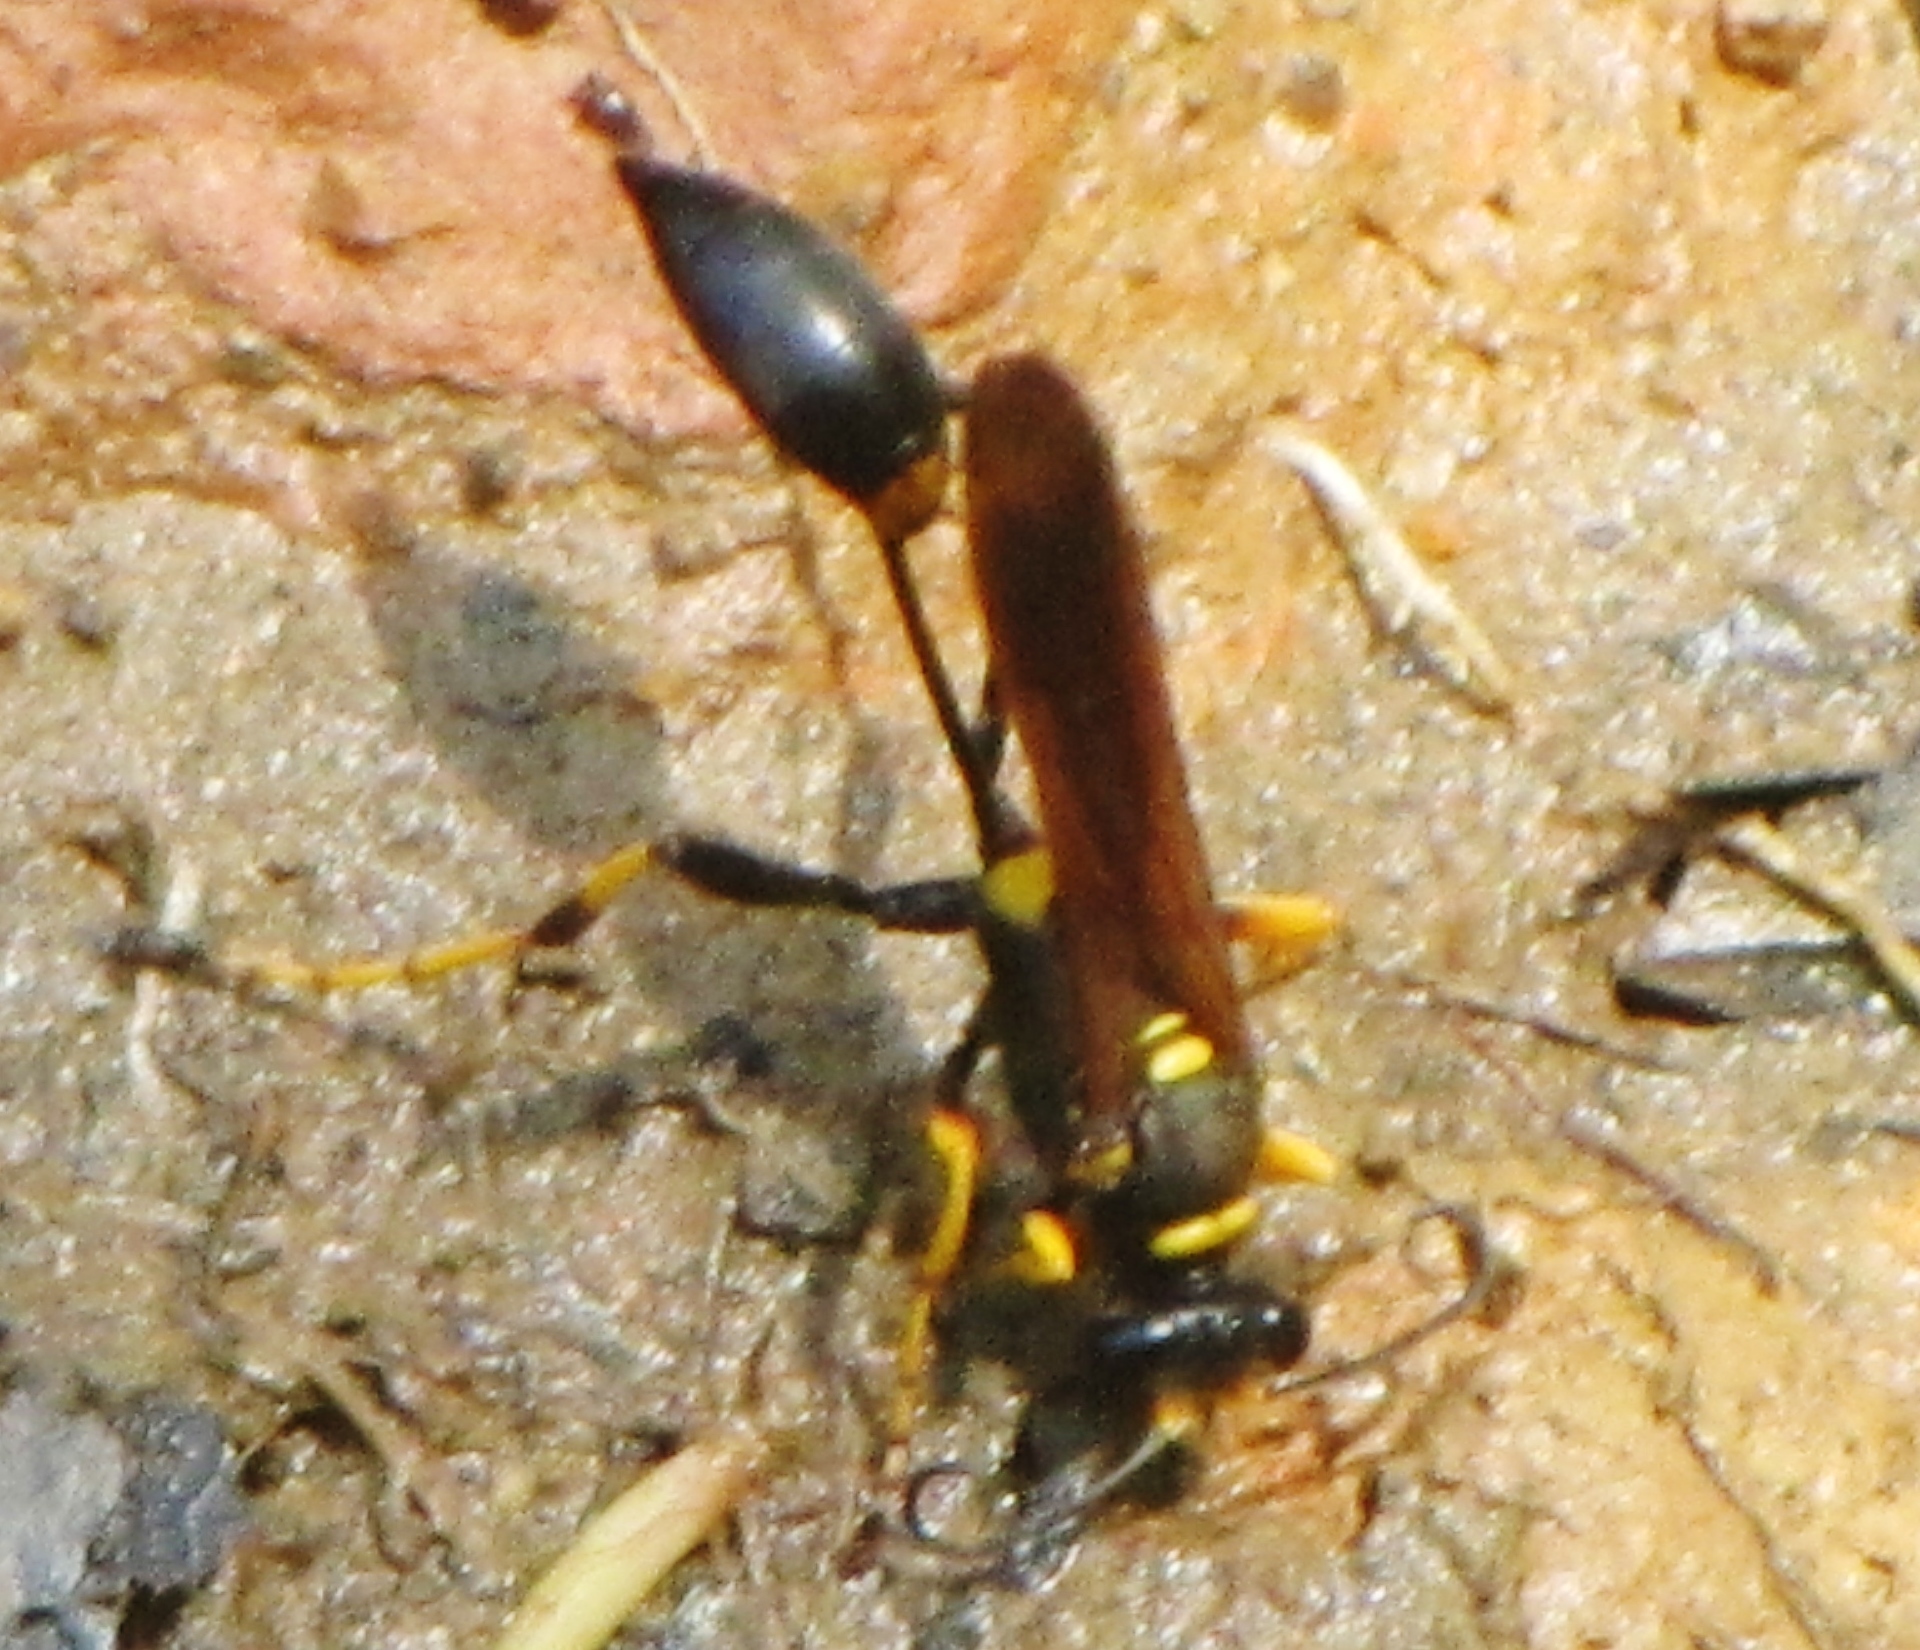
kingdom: Animalia
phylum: Arthropoda
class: Insecta
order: Hymenoptera
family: Sphecidae
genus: Sceliphron
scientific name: Sceliphron caementarium
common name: Mud dauber
